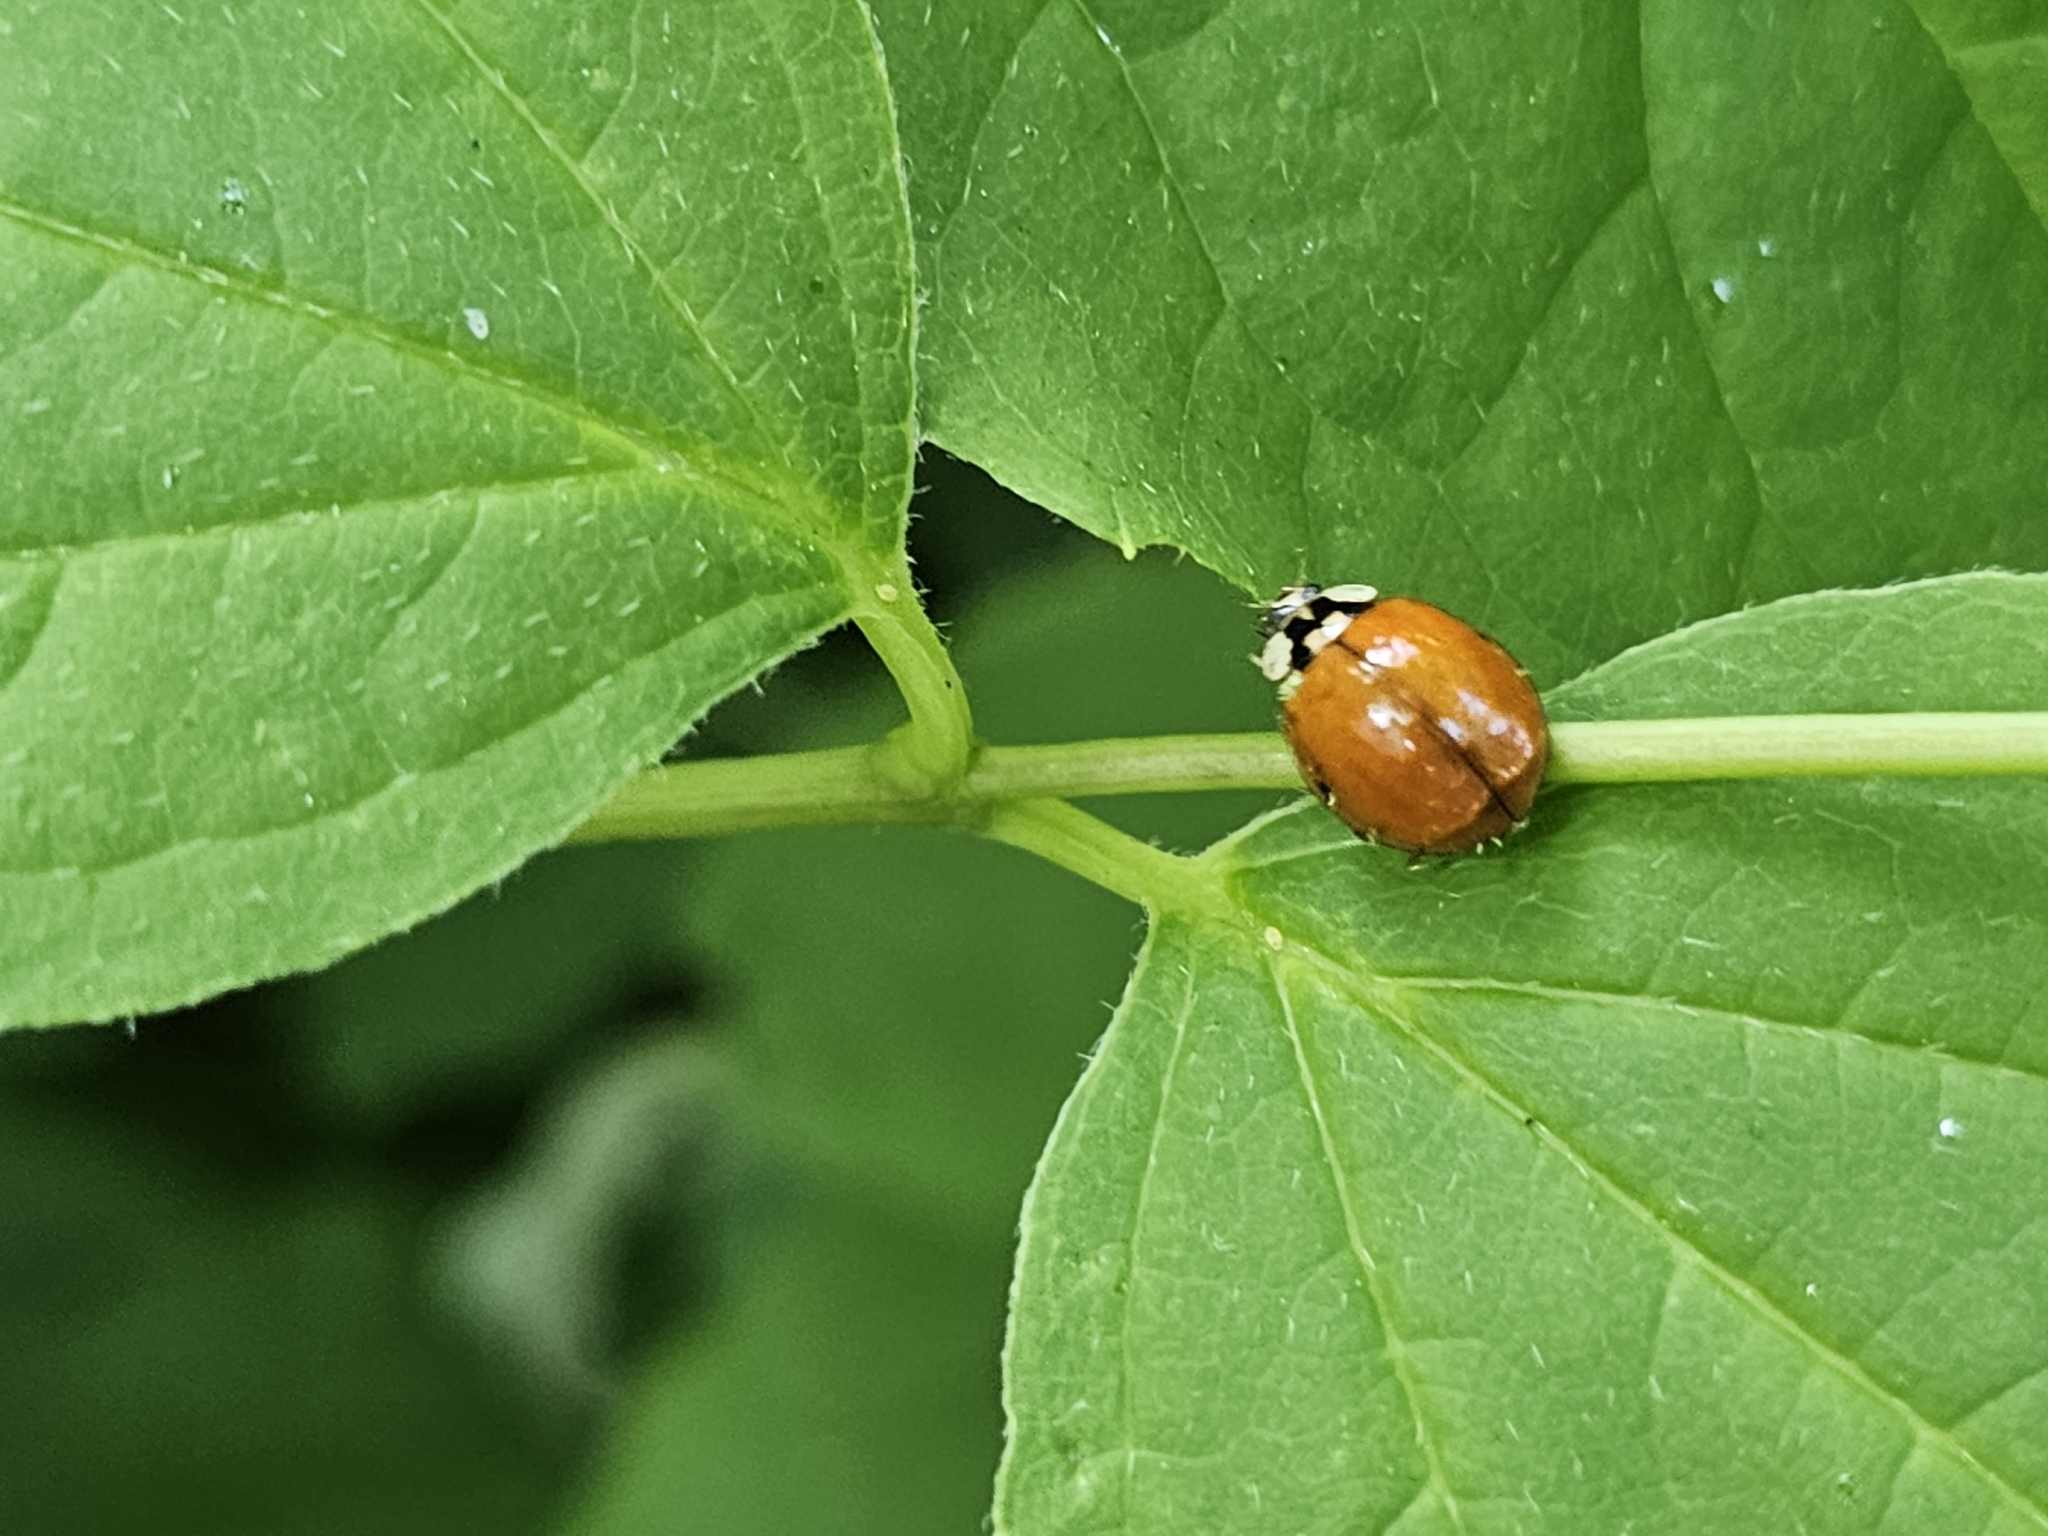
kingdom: Animalia
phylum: Arthropoda
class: Insecta
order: Coleoptera
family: Coccinellidae
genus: Harmonia
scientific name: Harmonia axyridis
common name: Harlequin ladybird
